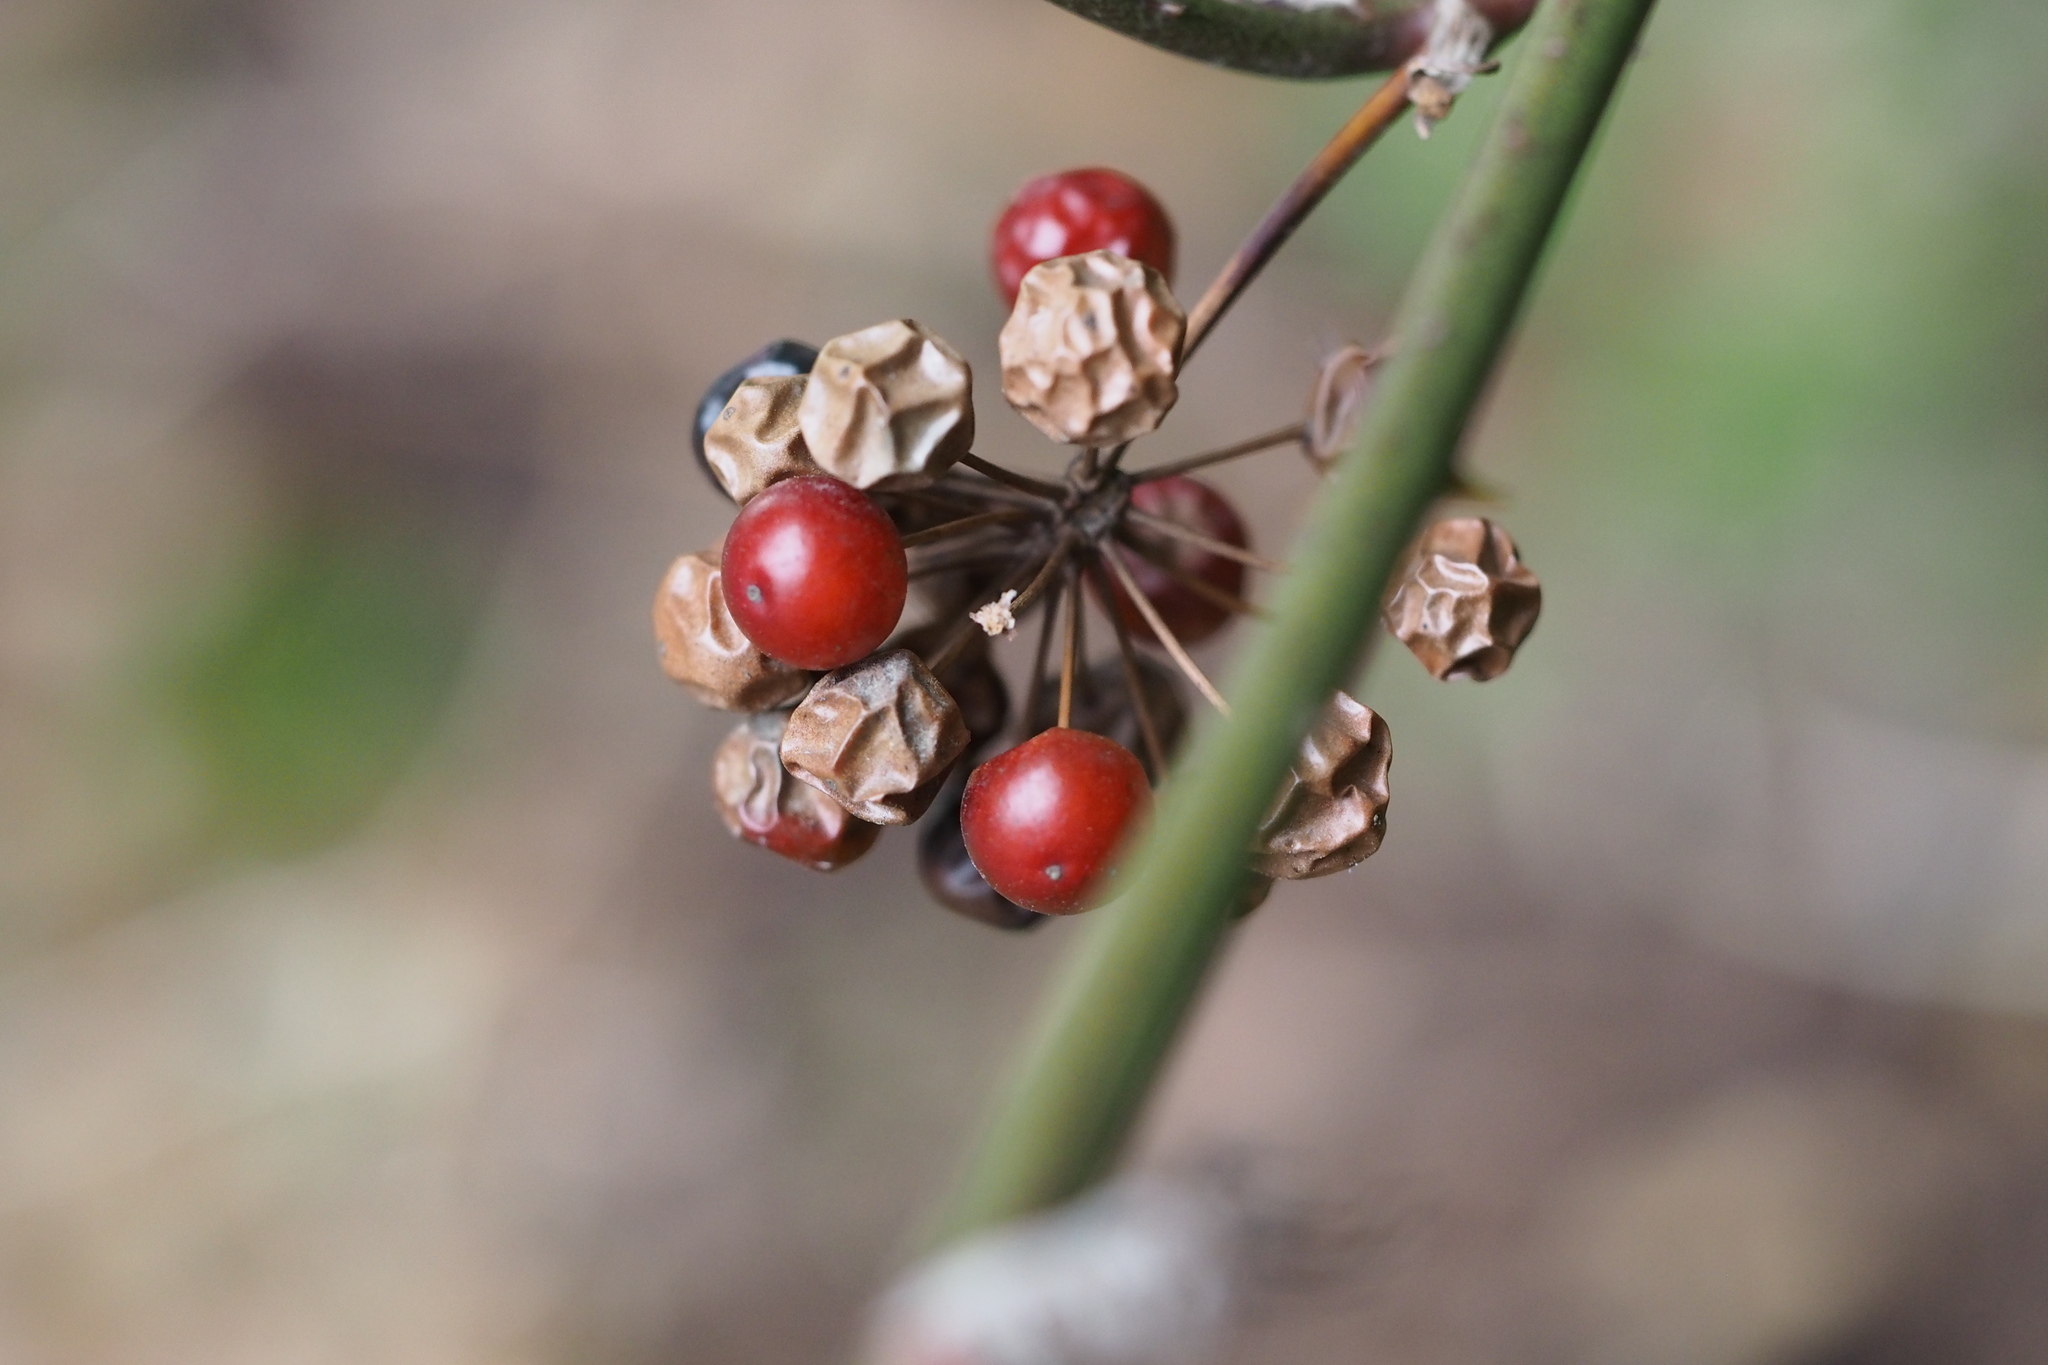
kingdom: Plantae
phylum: Tracheophyta
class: Liliopsida
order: Liliales
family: Smilacaceae
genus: Smilax
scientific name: Smilax china
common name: Chinaroot
